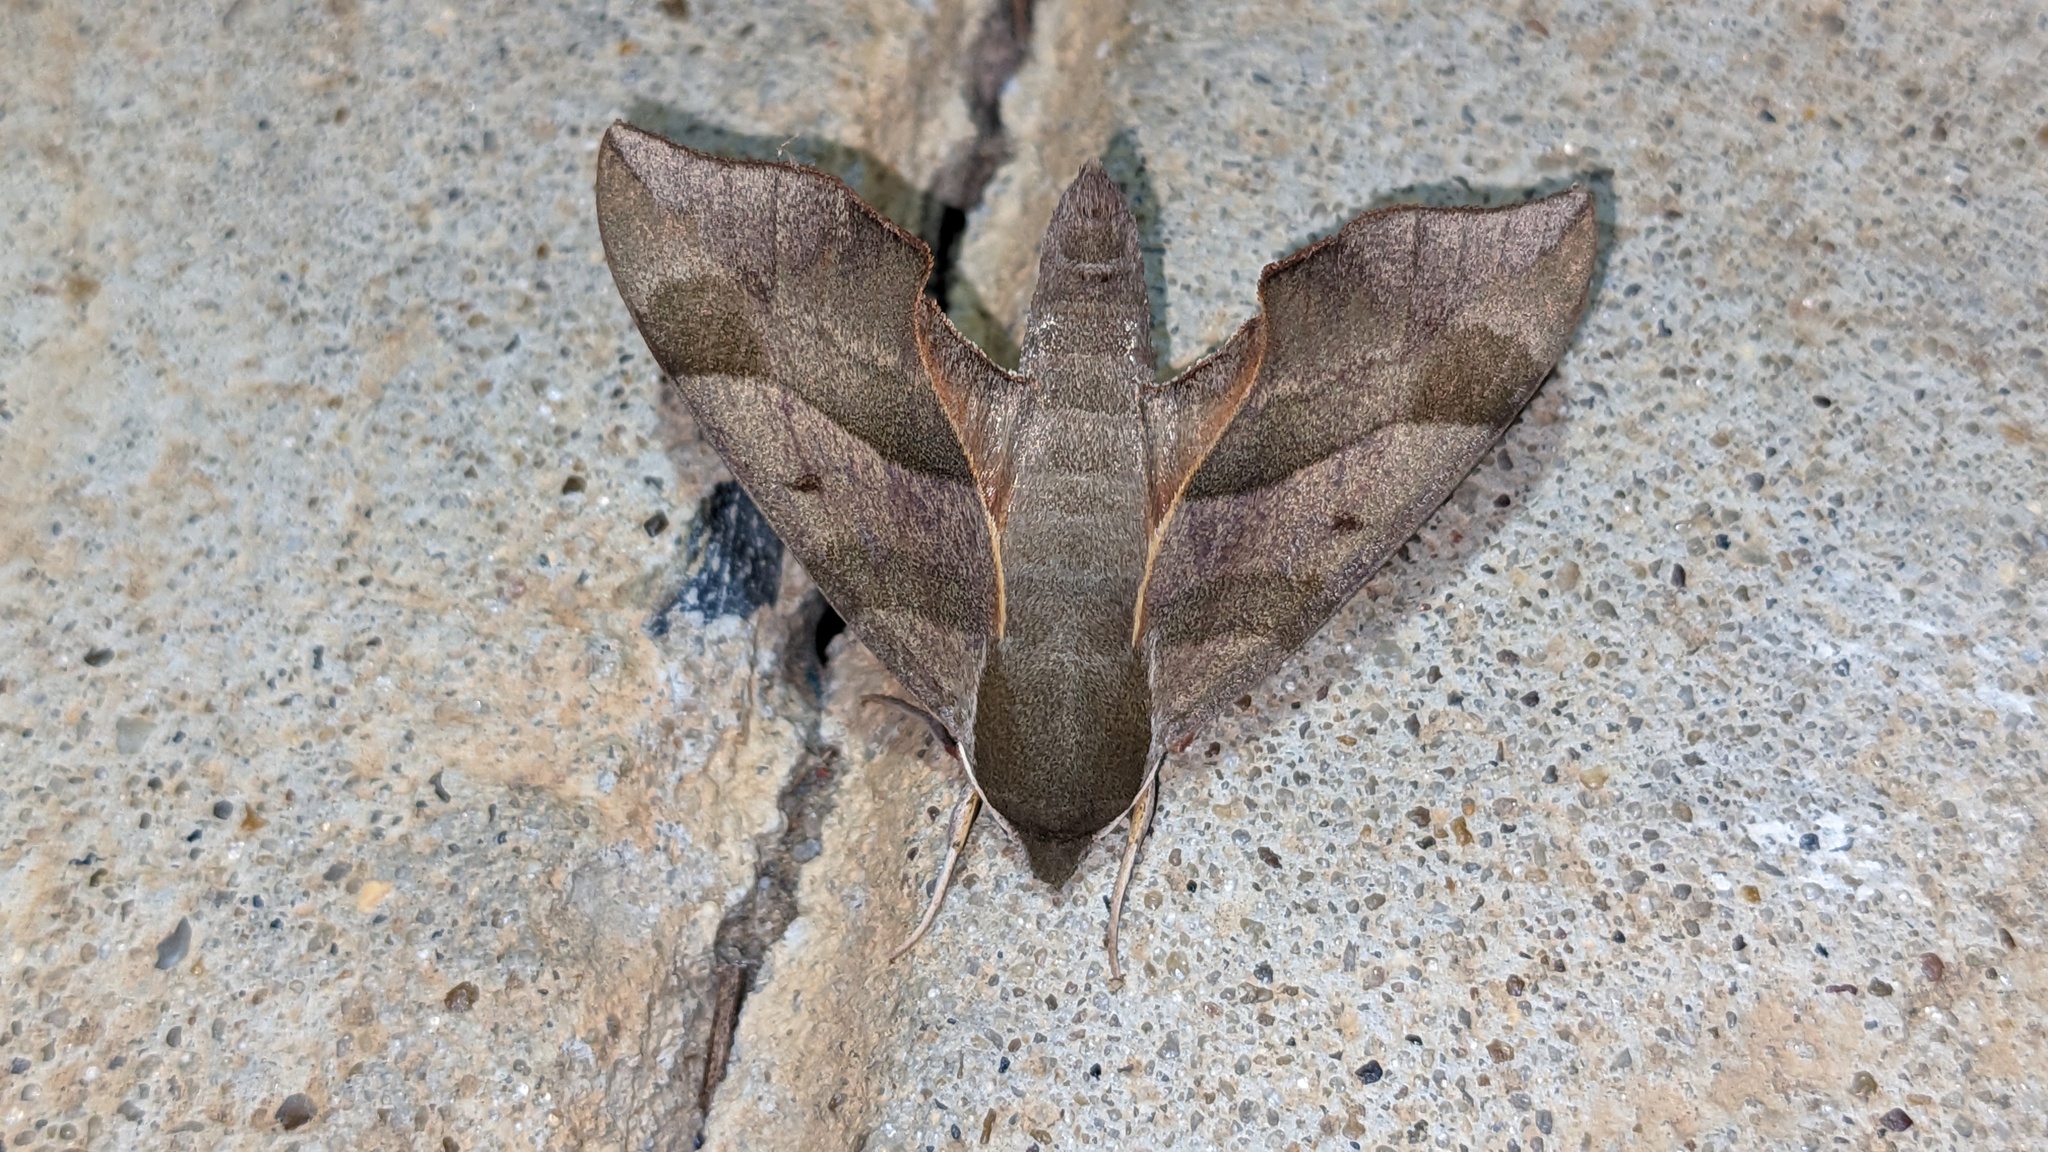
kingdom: Animalia
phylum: Arthropoda
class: Insecta
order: Lepidoptera
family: Sphingidae
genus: Darapsa
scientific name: Darapsa myron
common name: Hog sphinx
